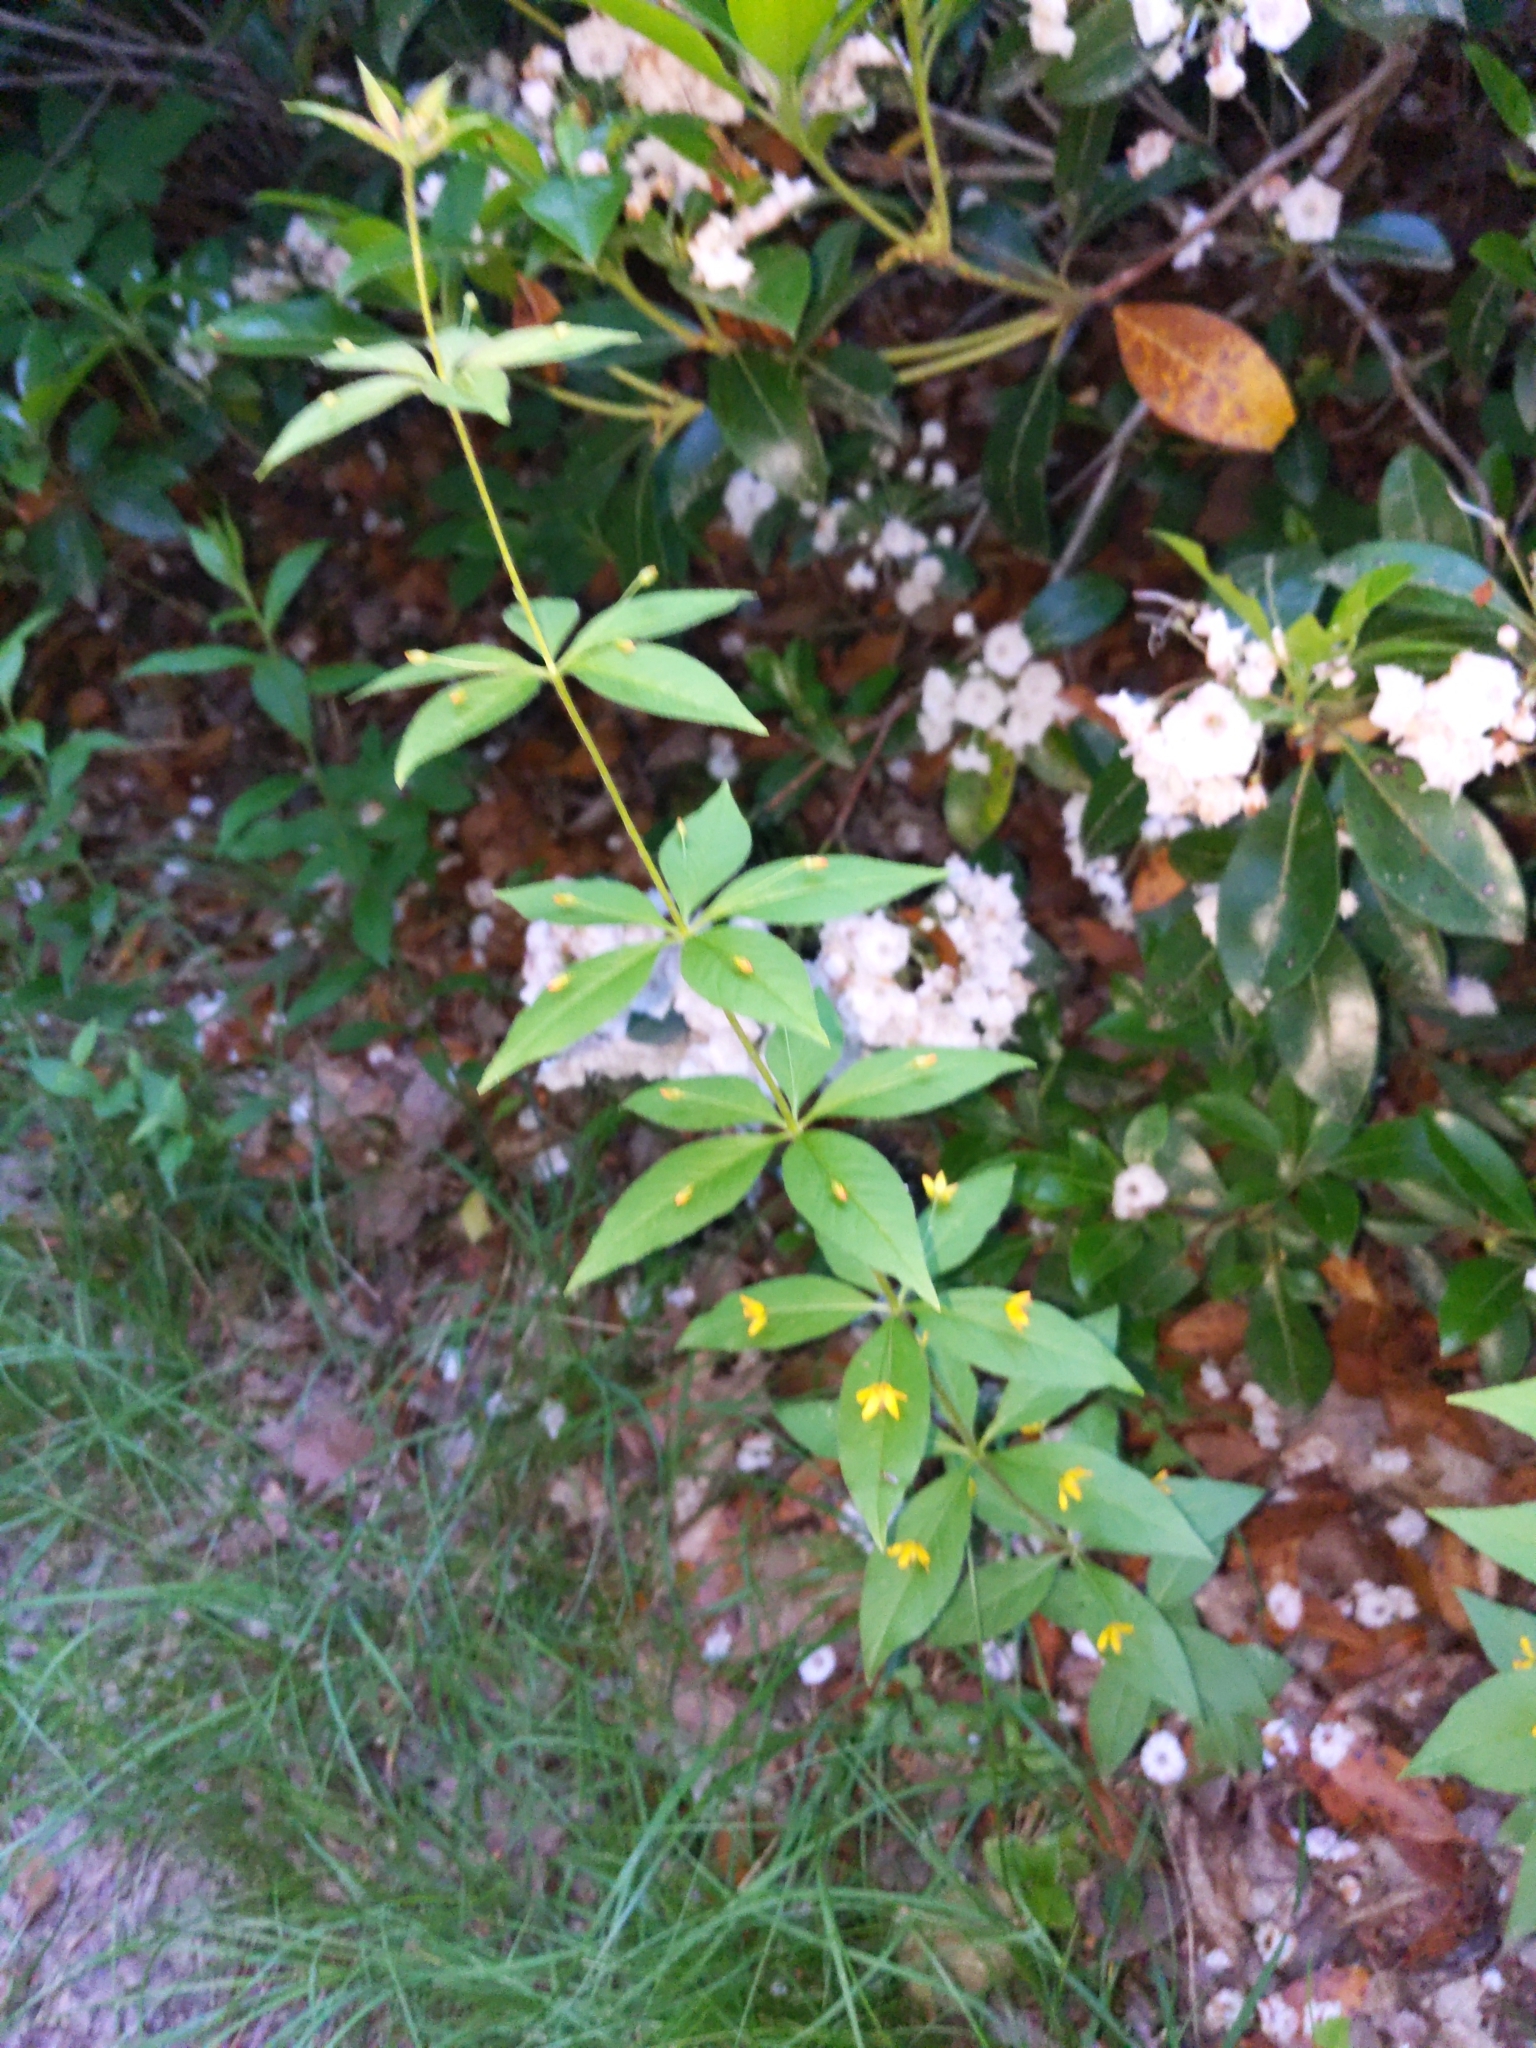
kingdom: Plantae
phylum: Tracheophyta
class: Magnoliopsida
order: Ericales
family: Primulaceae
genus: Lysimachia
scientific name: Lysimachia quadrifolia
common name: Whorled loosestrife
